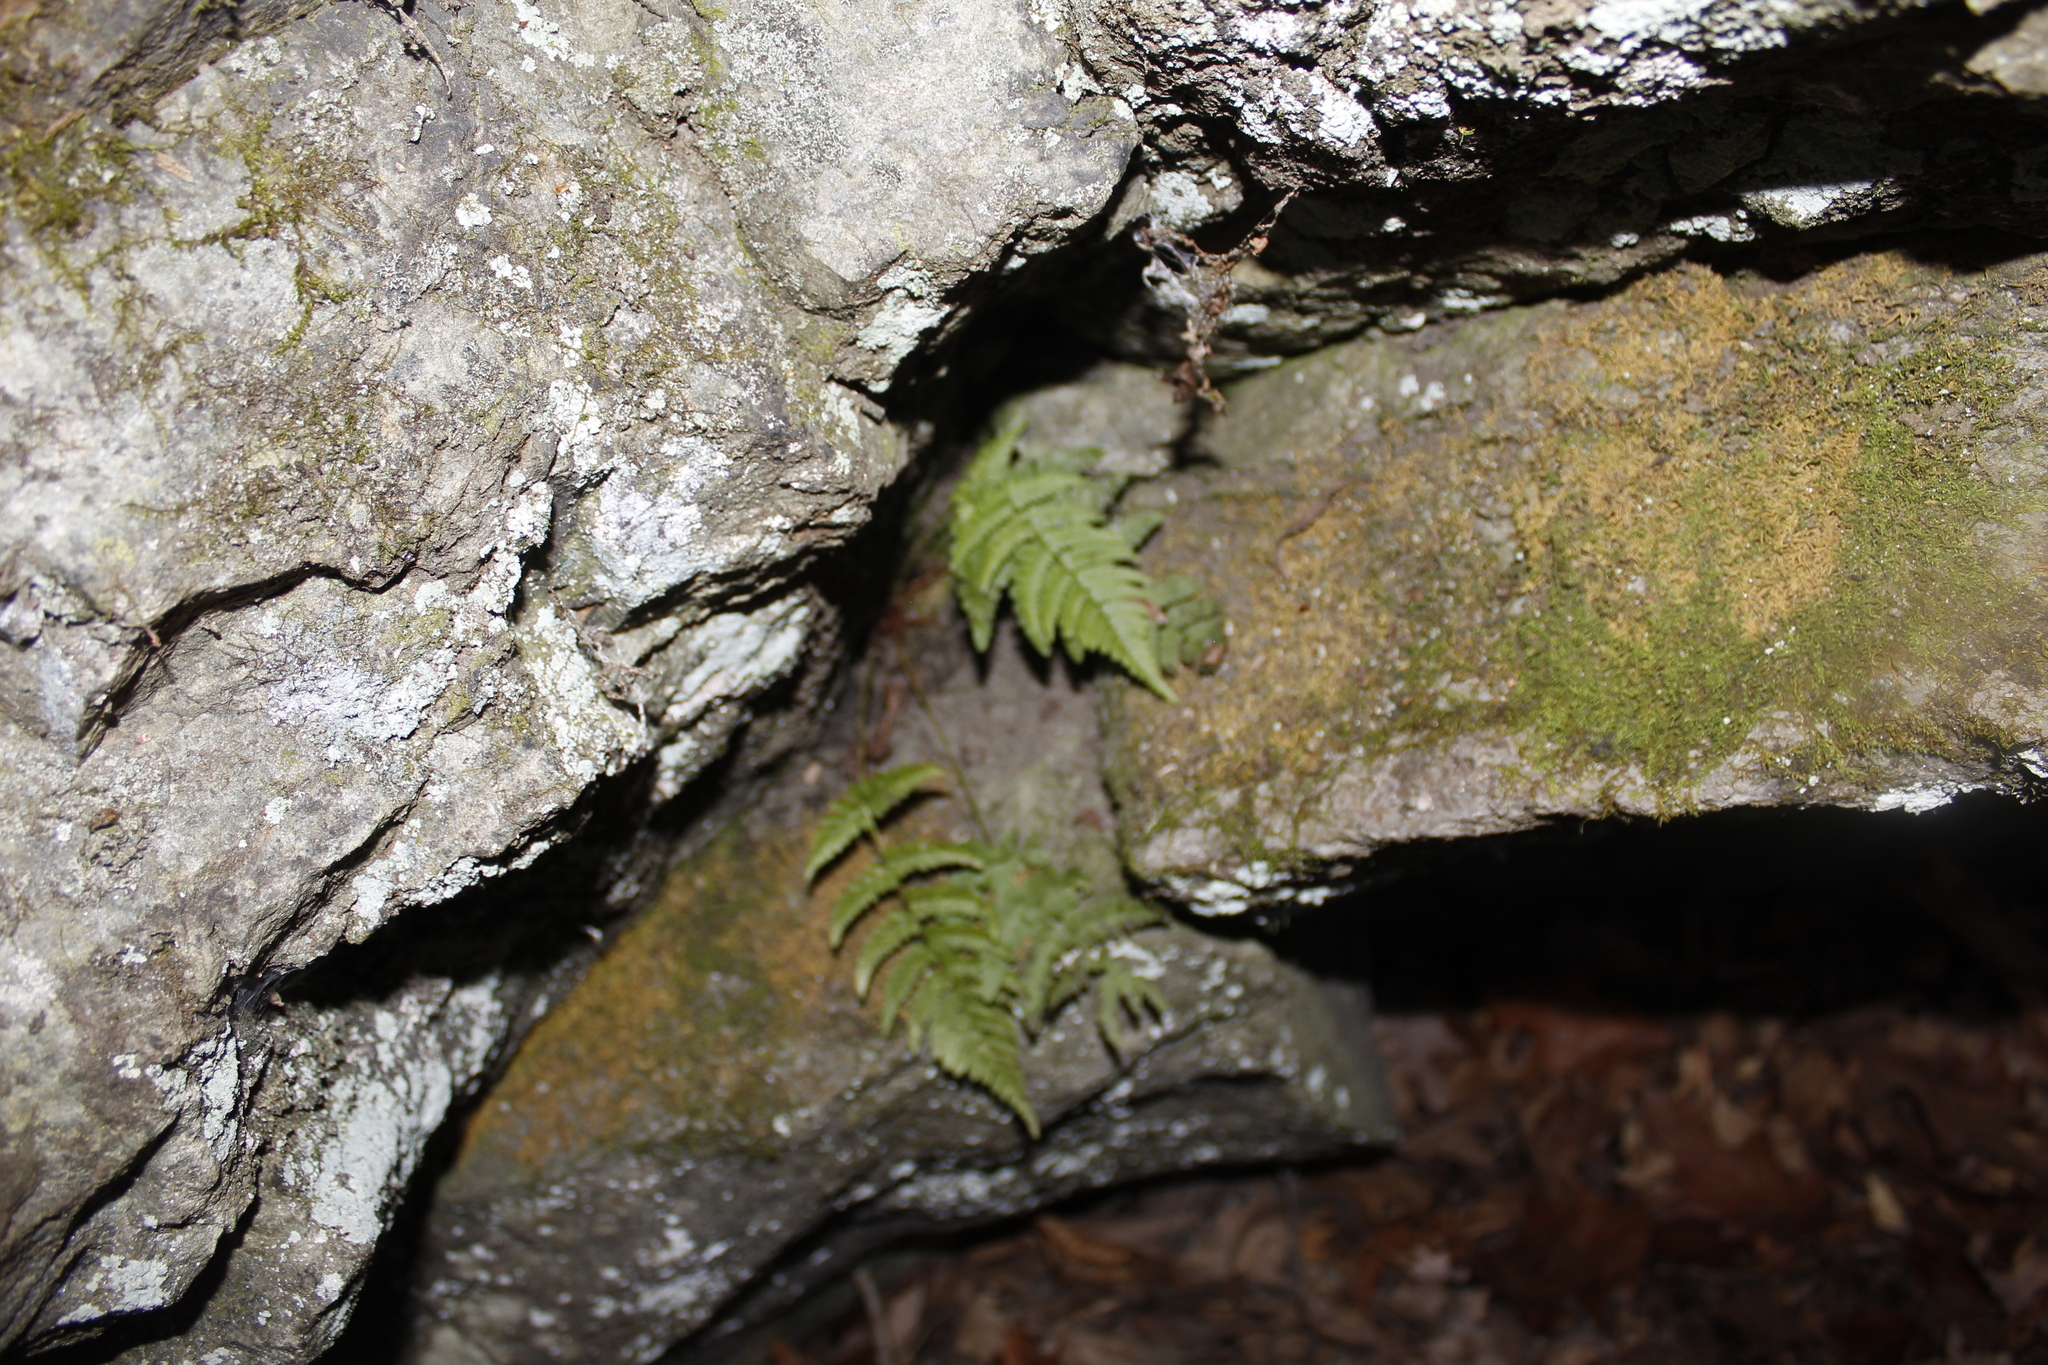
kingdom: Plantae
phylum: Tracheophyta
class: Polypodiopsida
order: Polypodiales
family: Dryopteridaceae
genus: Dryopteris
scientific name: Dryopteris marginalis
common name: Marginal wood fern
